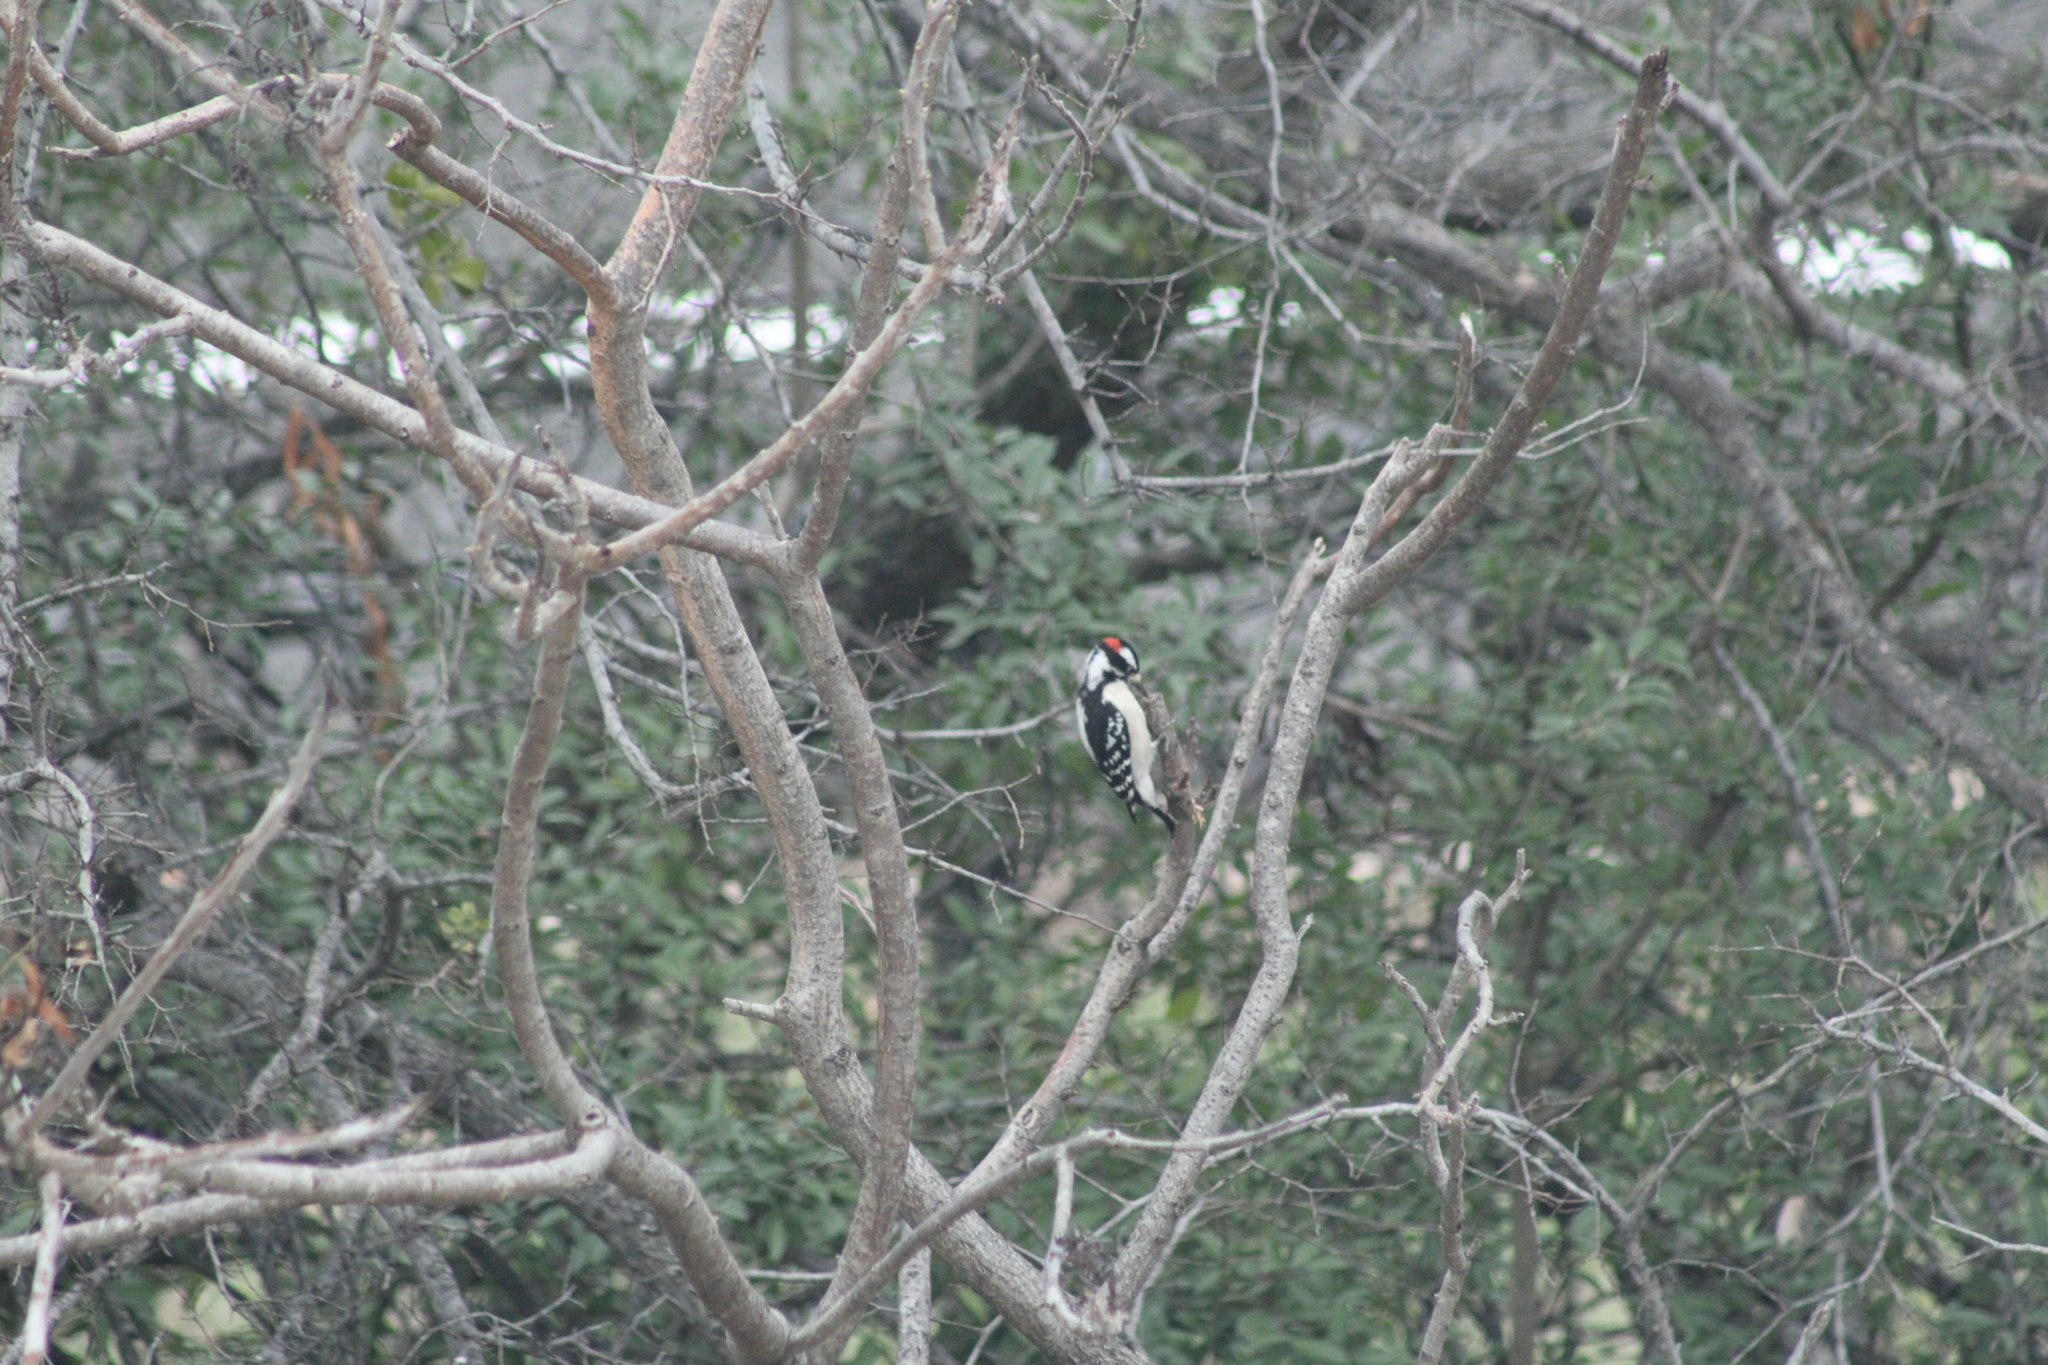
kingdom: Animalia
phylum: Chordata
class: Aves
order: Piciformes
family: Picidae
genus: Dryobates
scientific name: Dryobates pubescens
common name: Downy woodpecker
